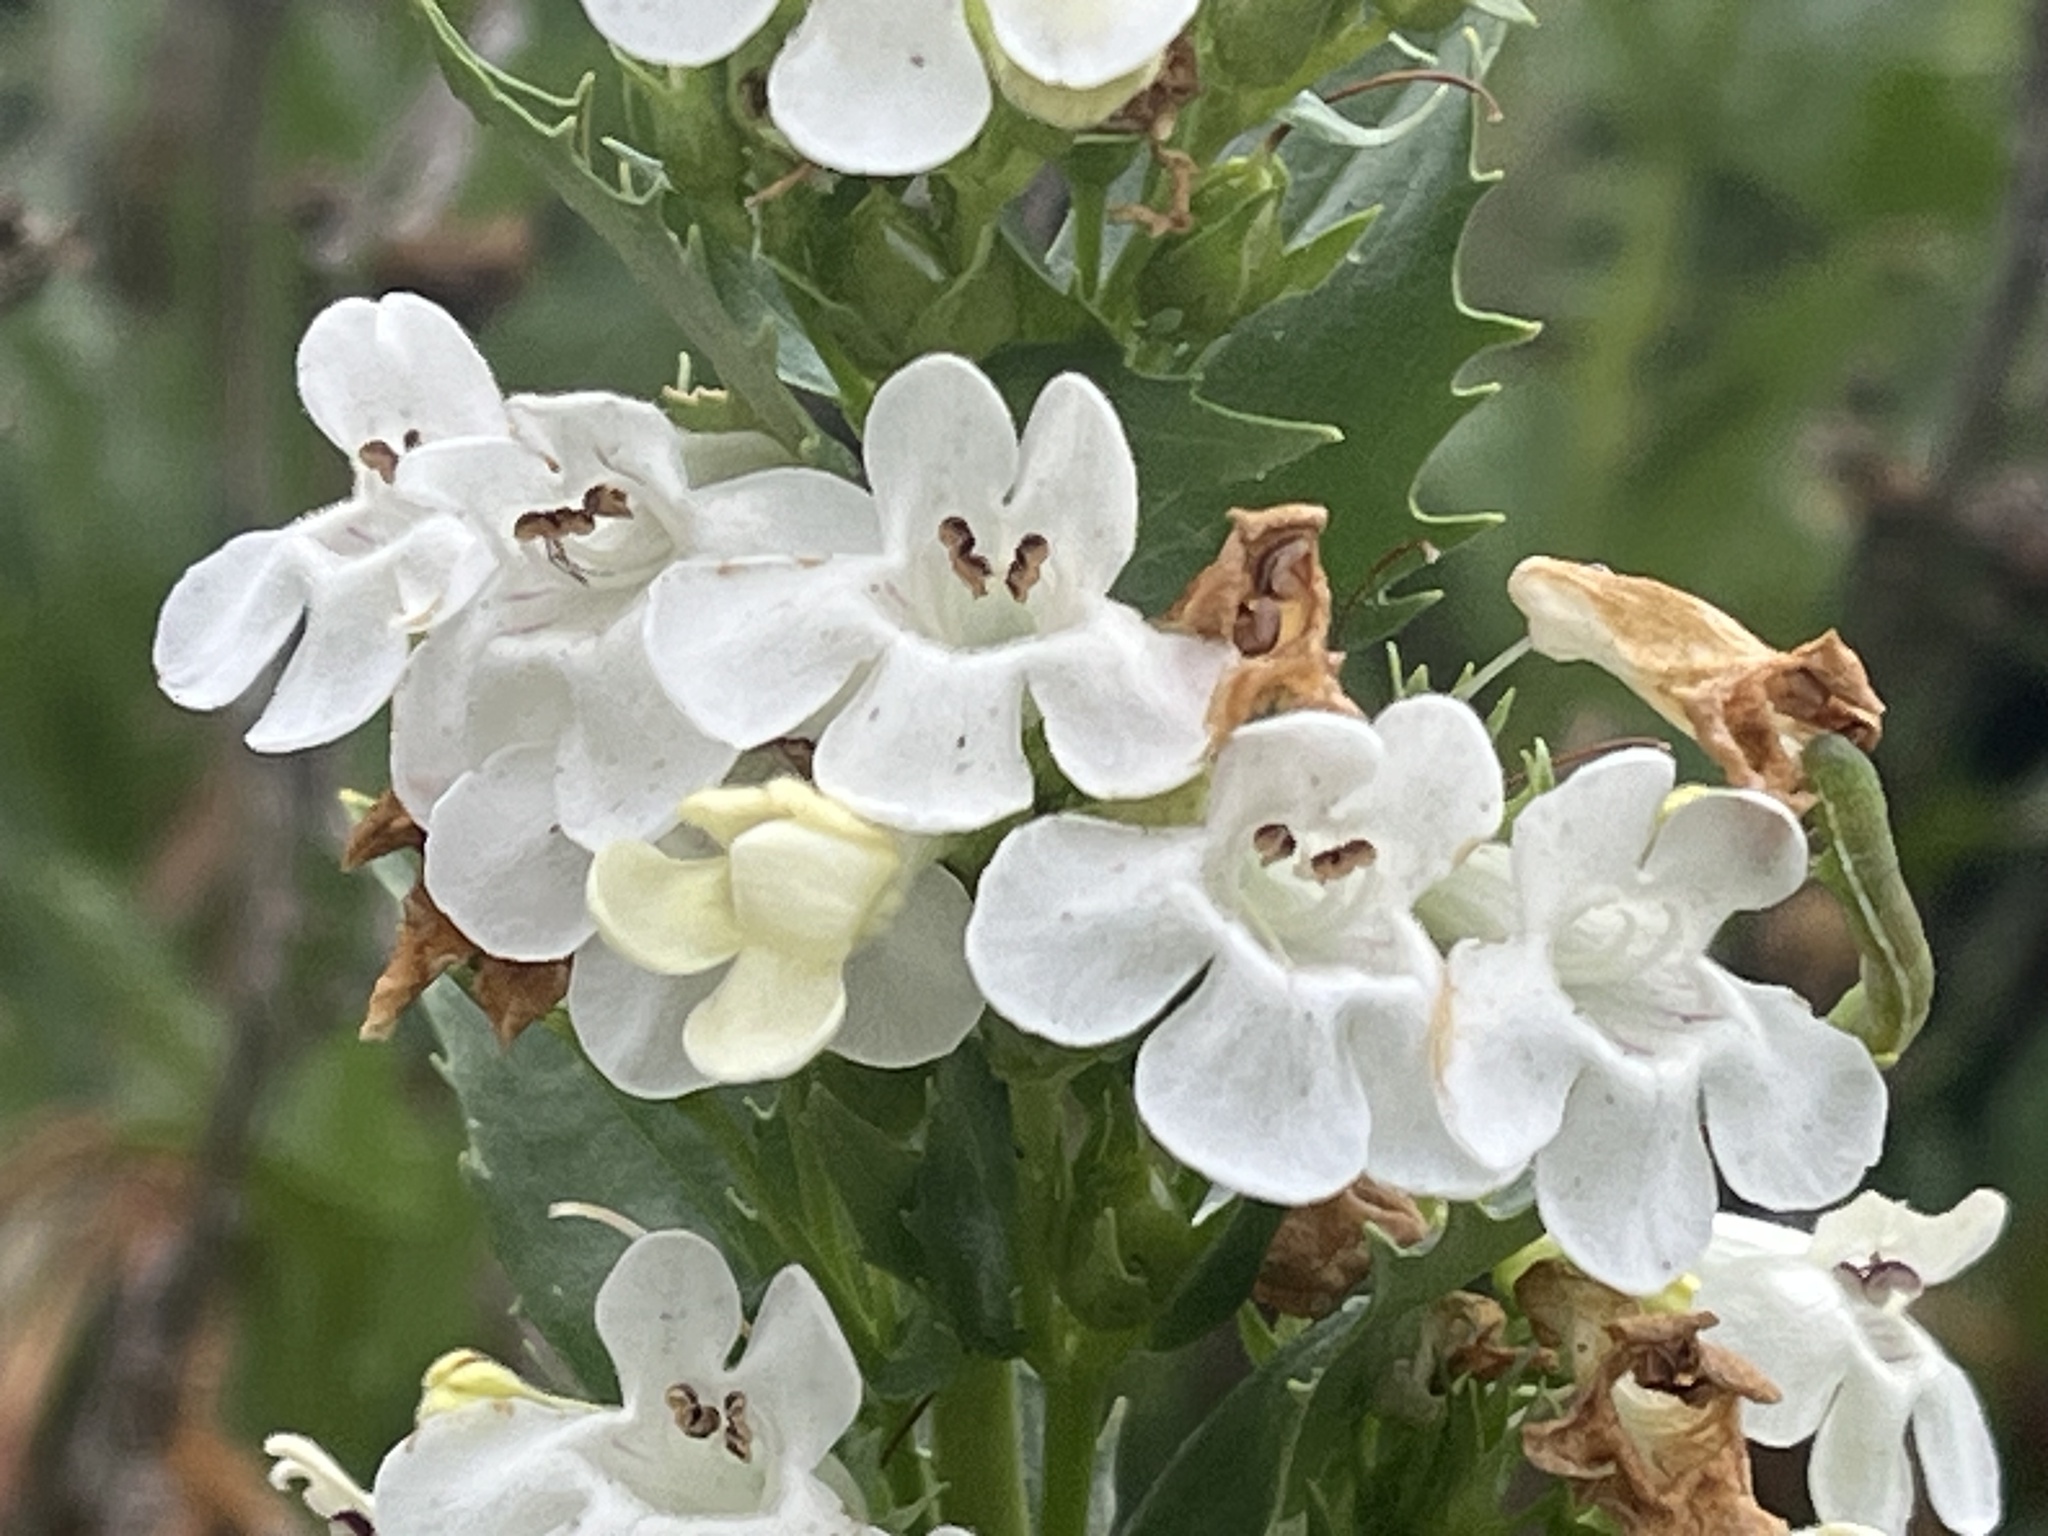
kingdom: Plantae
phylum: Tracheophyta
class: Magnoliopsida
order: Lamiales
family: Plantaginaceae
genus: Penstemon
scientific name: Penstemon deustus
